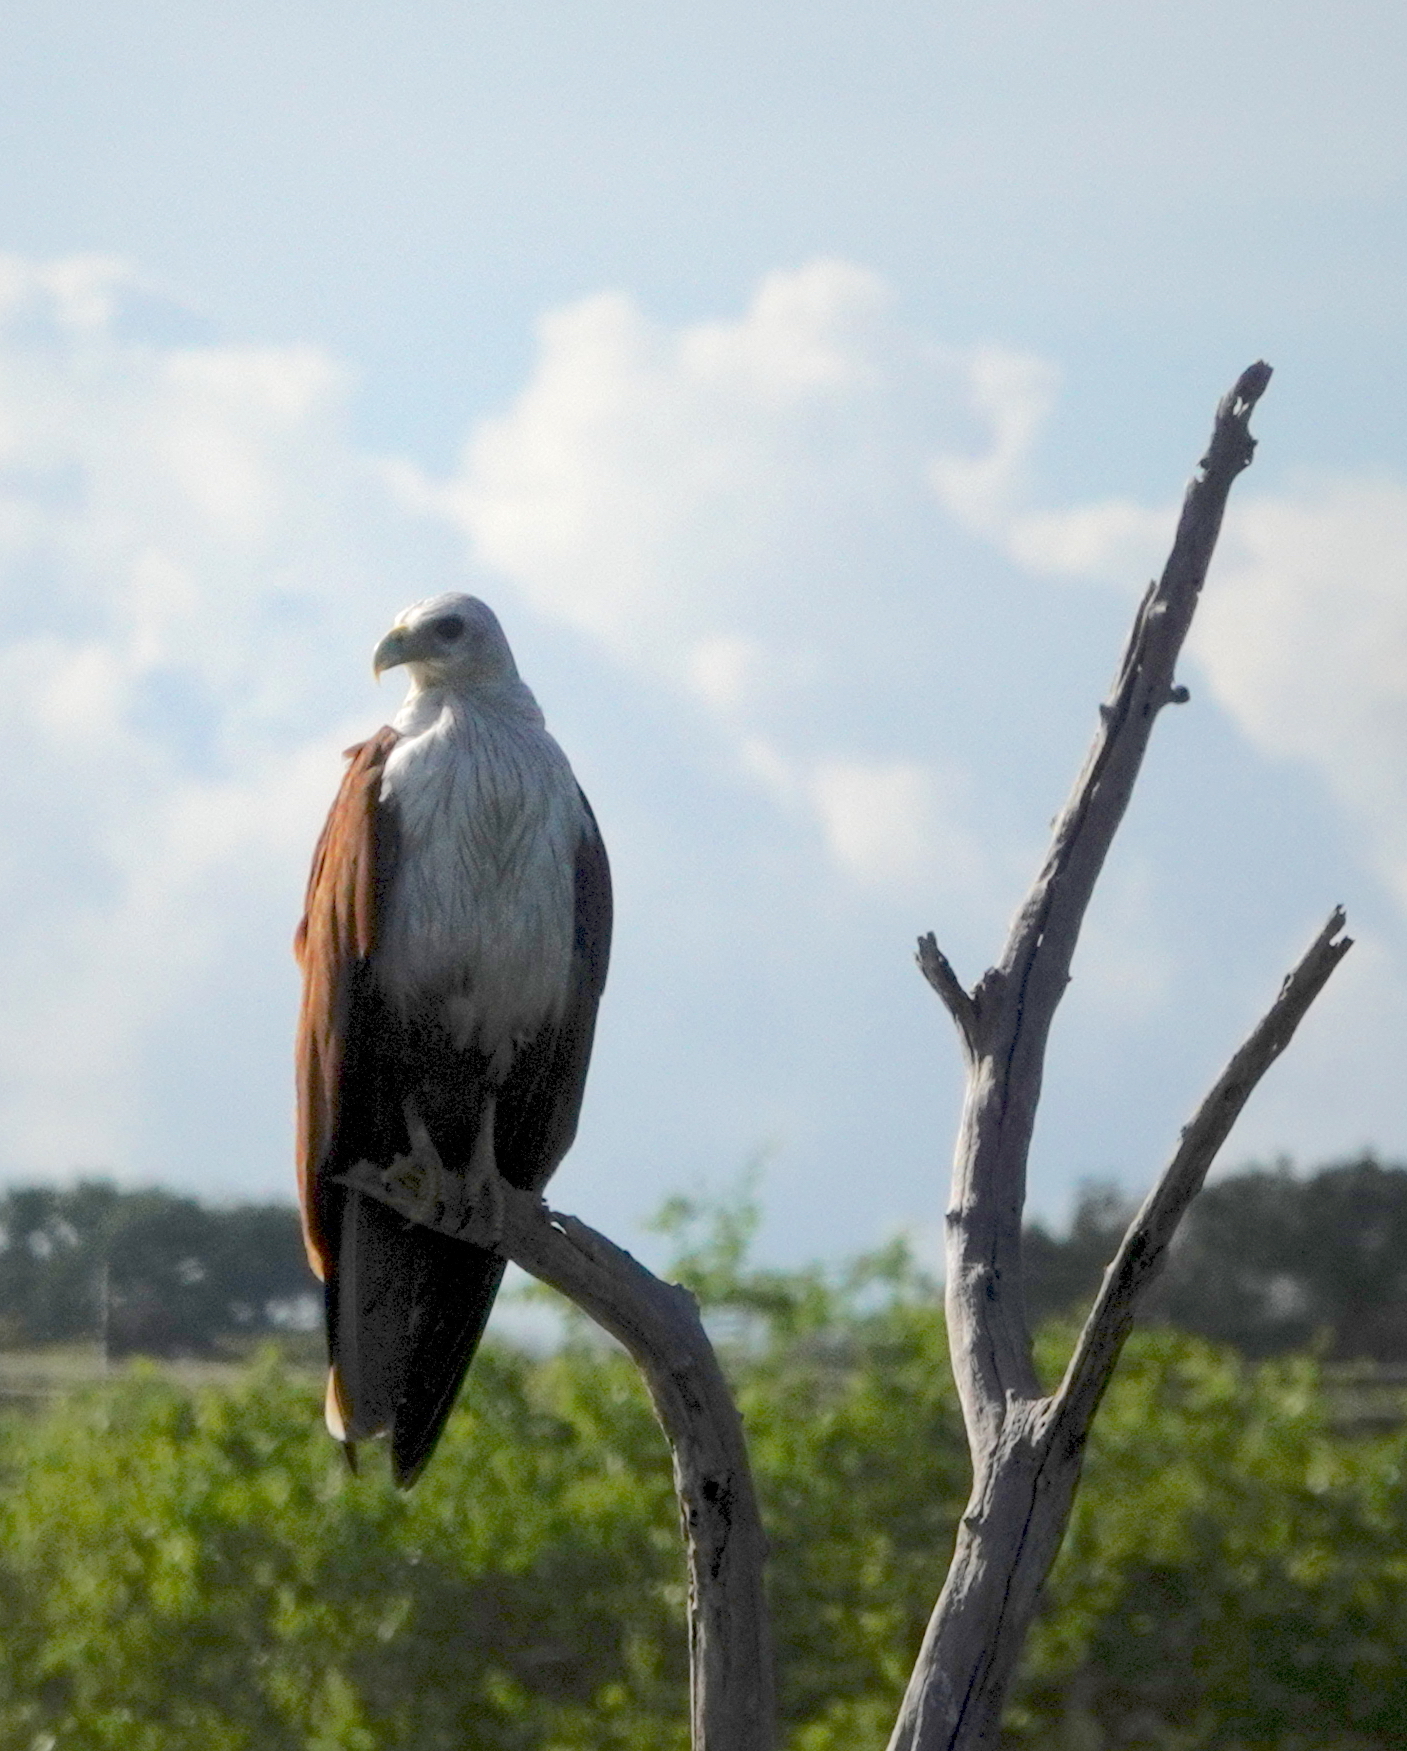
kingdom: Animalia
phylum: Chordata
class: Aves
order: Accipitriformes
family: Accipitridae
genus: Haliastur
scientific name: Haliastur indus
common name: Brahminy kite
